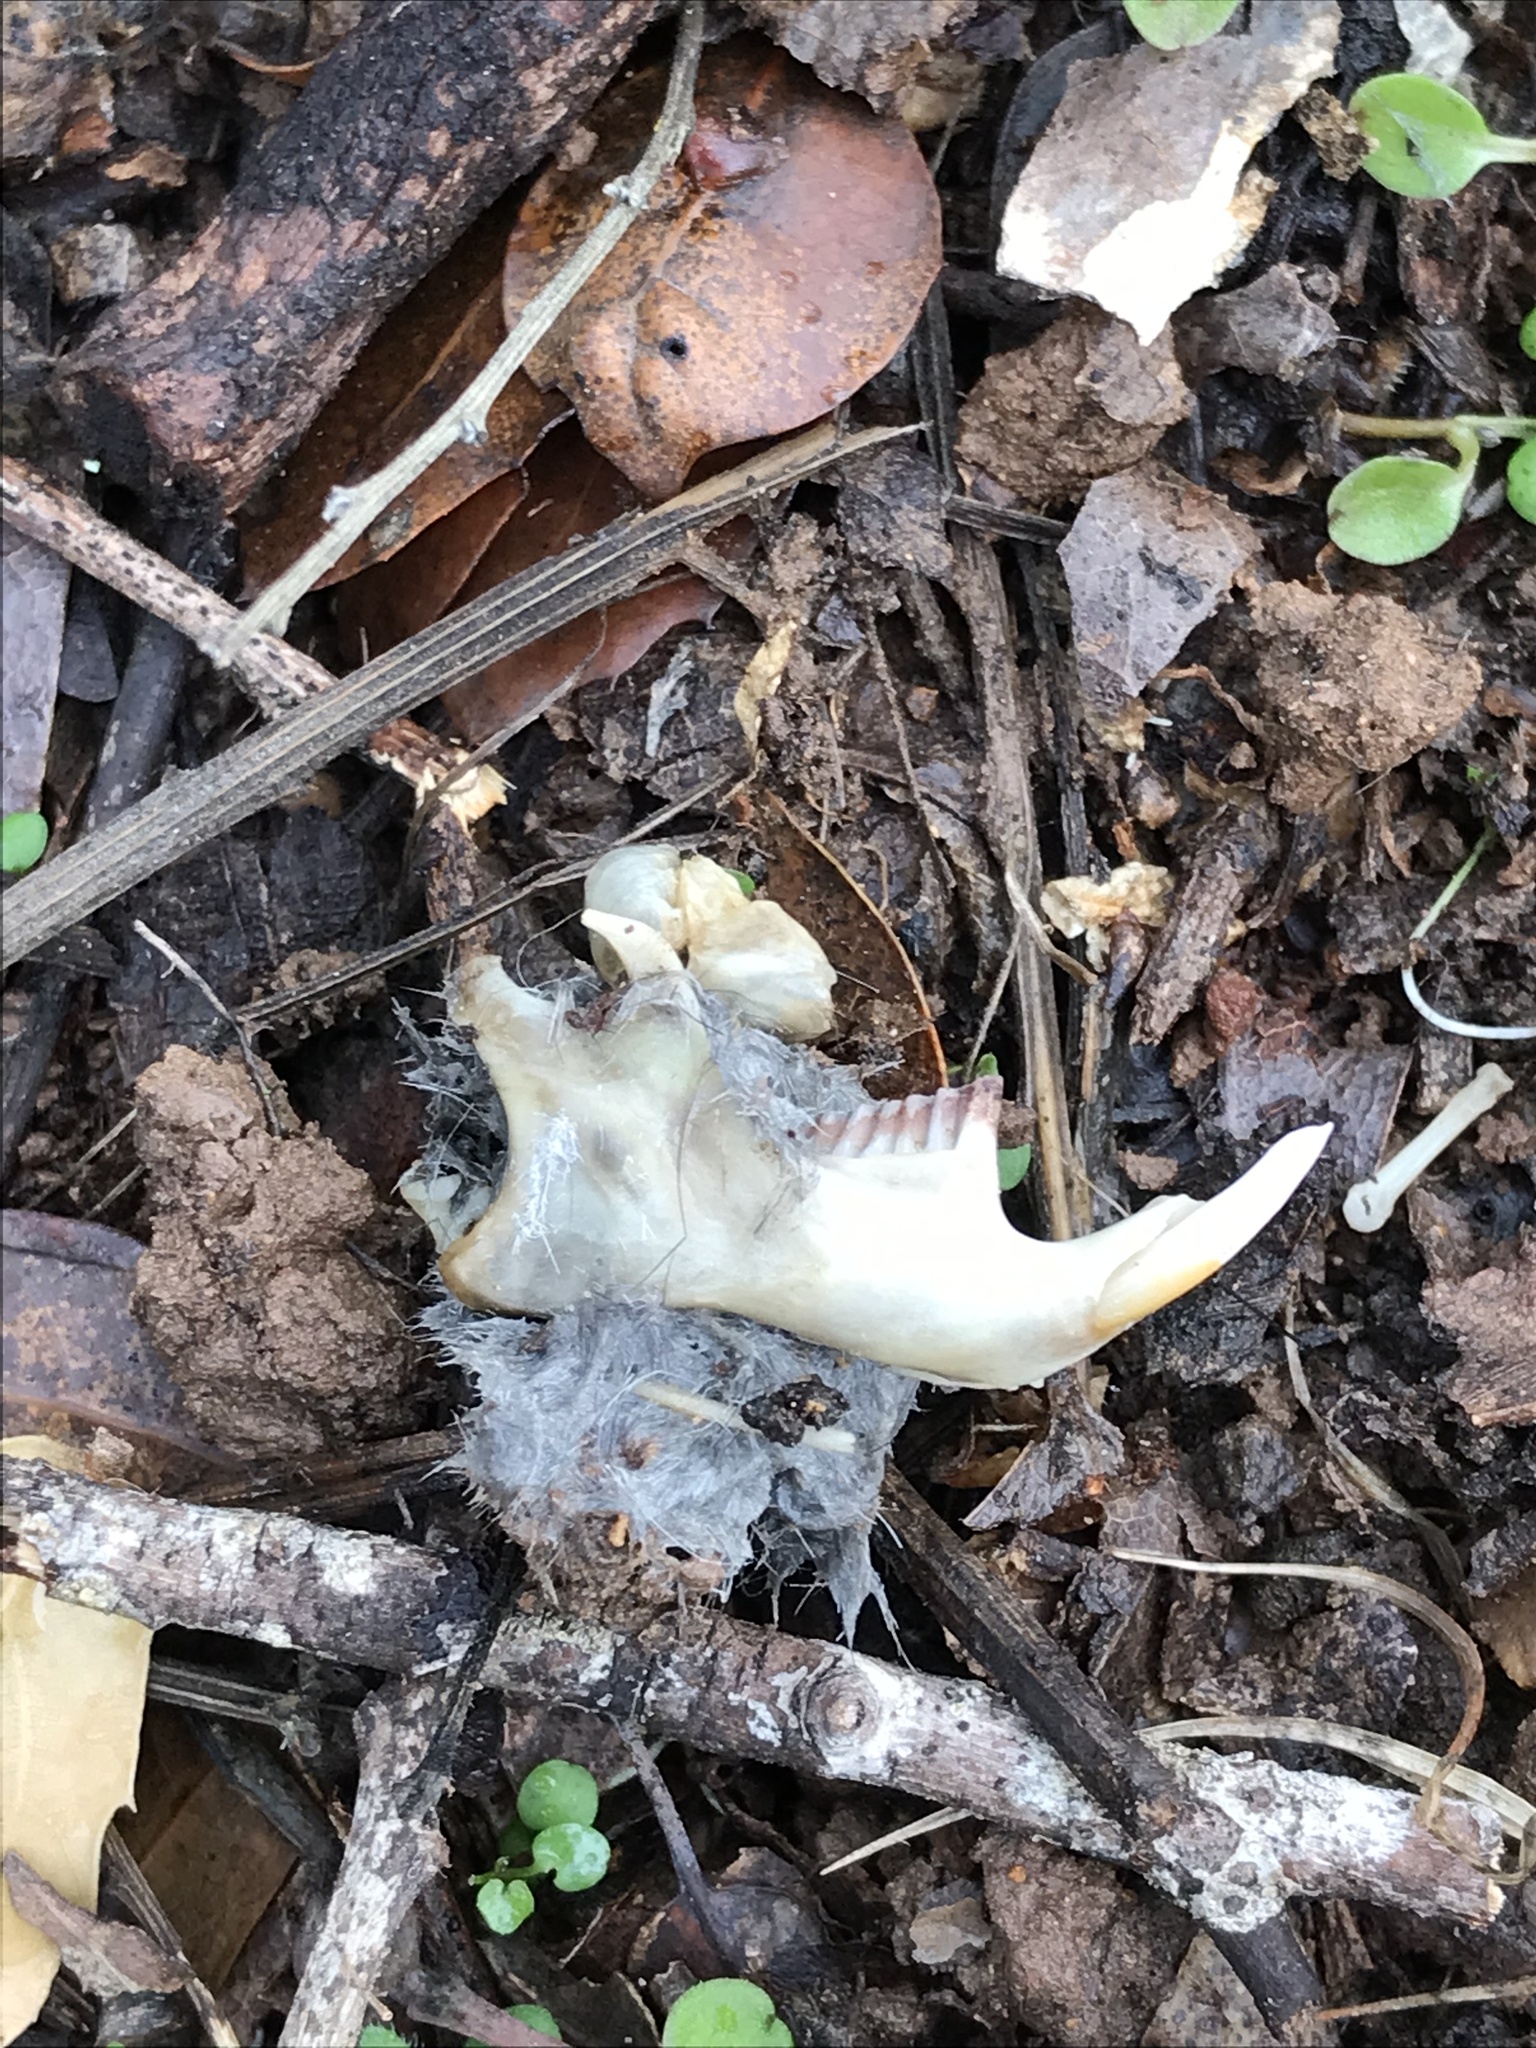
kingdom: Animalia
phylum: Chordata
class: Mammalia
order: Rodentia
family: Cricetidae
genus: Microtus
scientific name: Microtus californicus
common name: California vole
